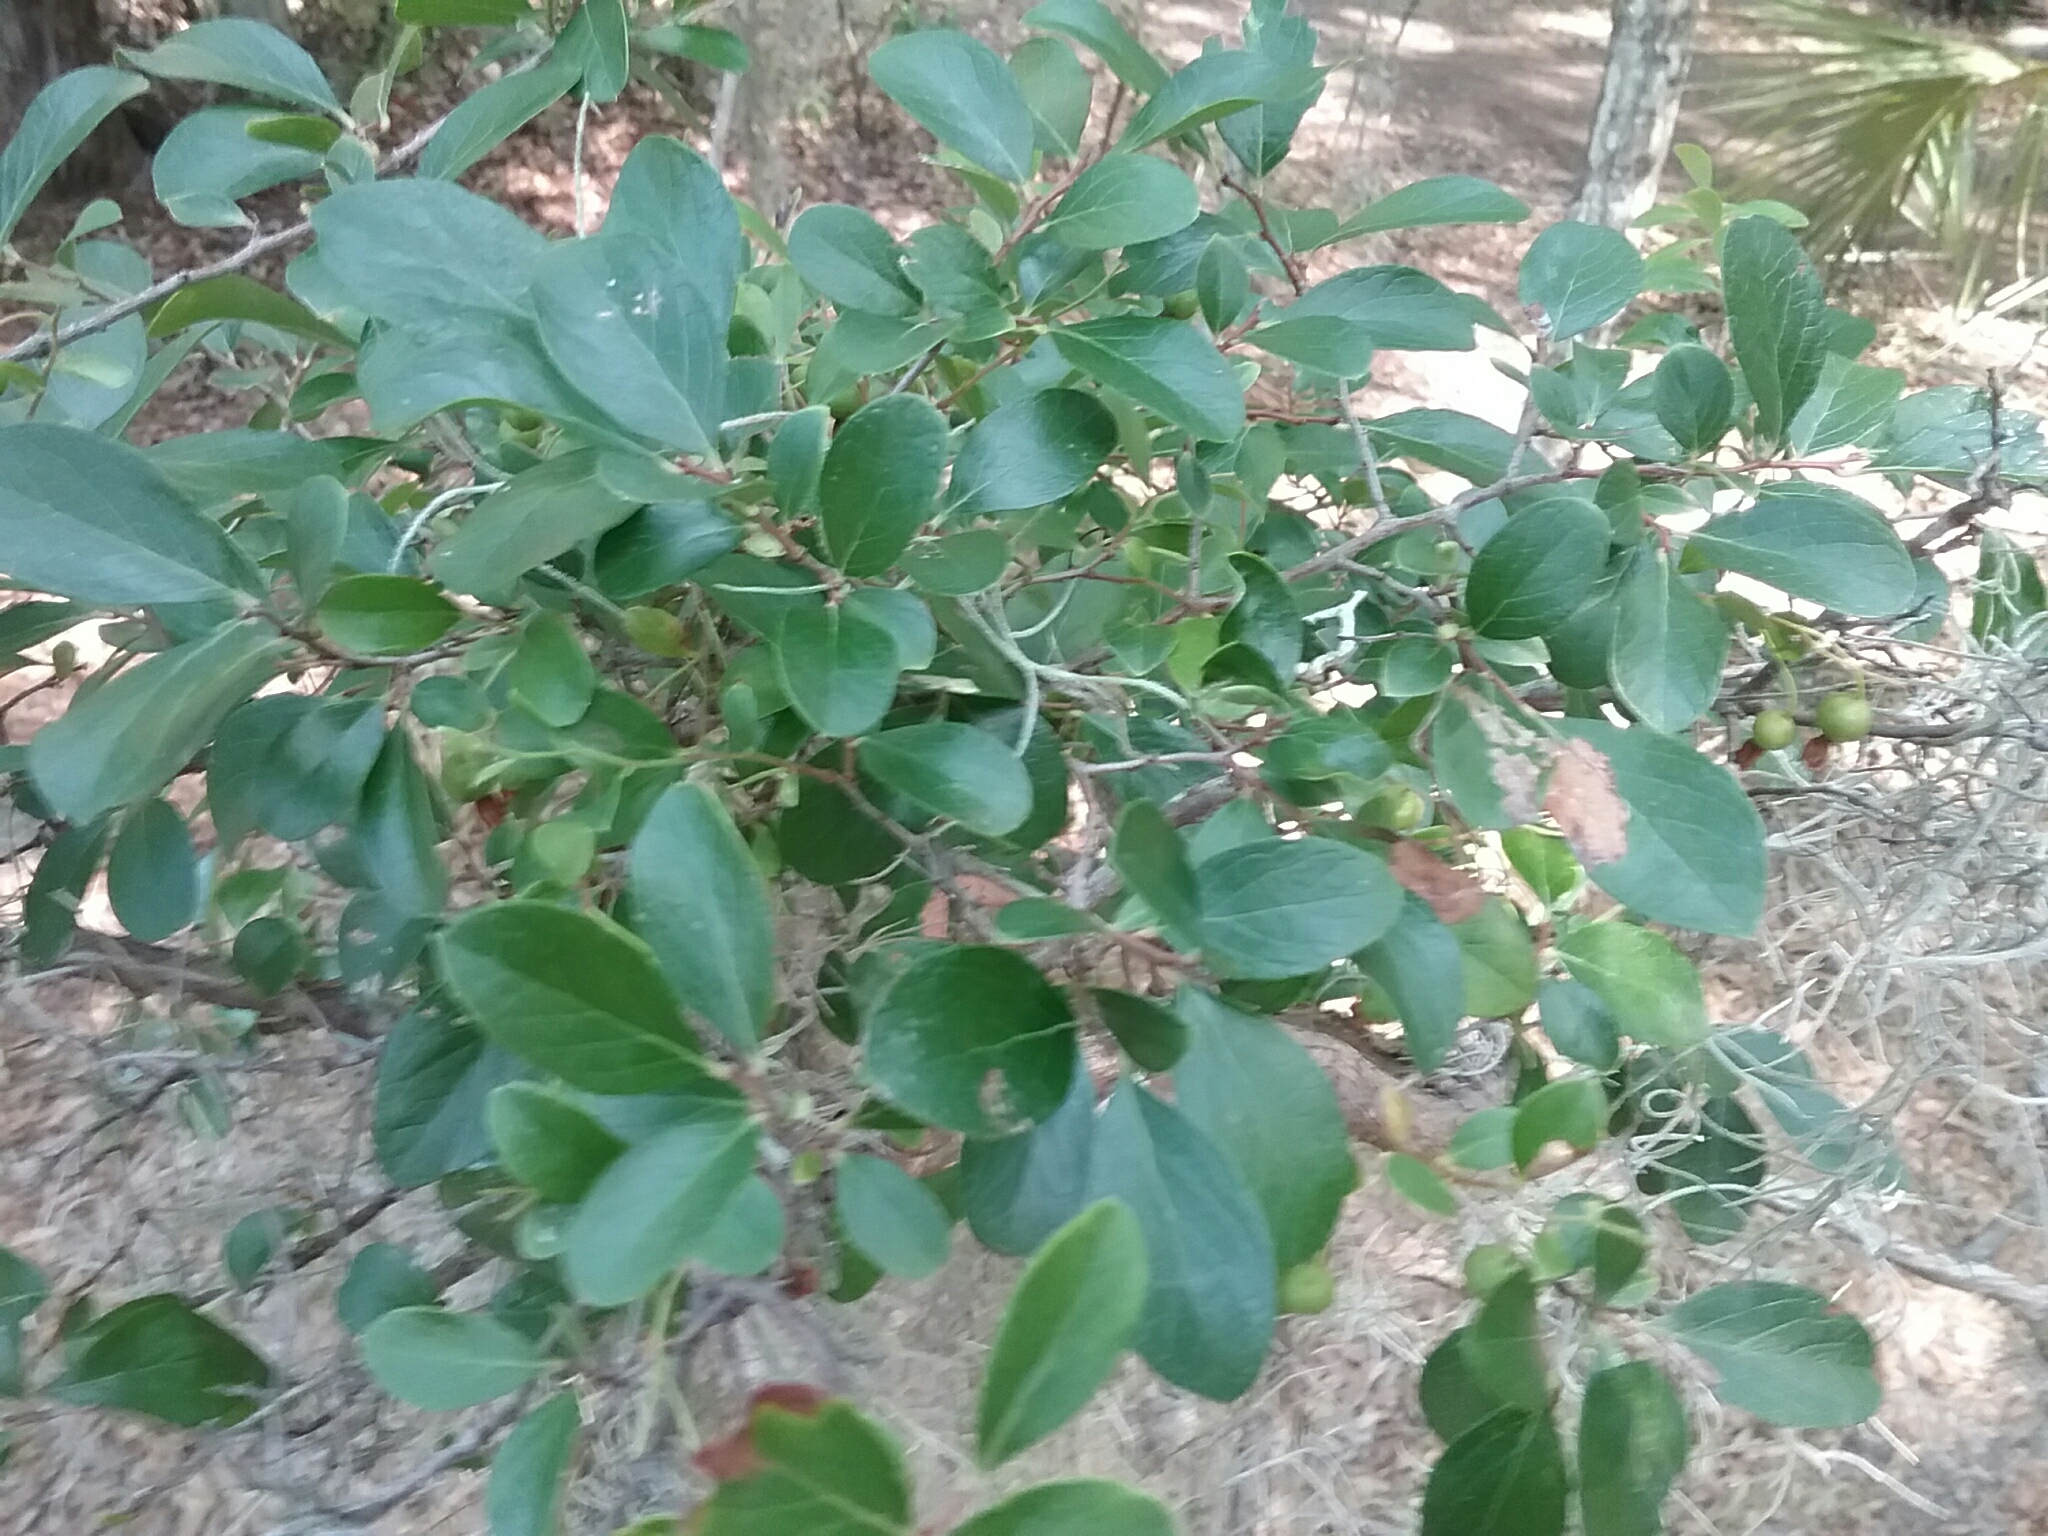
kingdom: Plantae
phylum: Tracheophyta
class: Magnoliopsida
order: Ericales
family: Ericaceae
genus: Vaccinium
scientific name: Vaccinium arboreum
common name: Farkleberry
